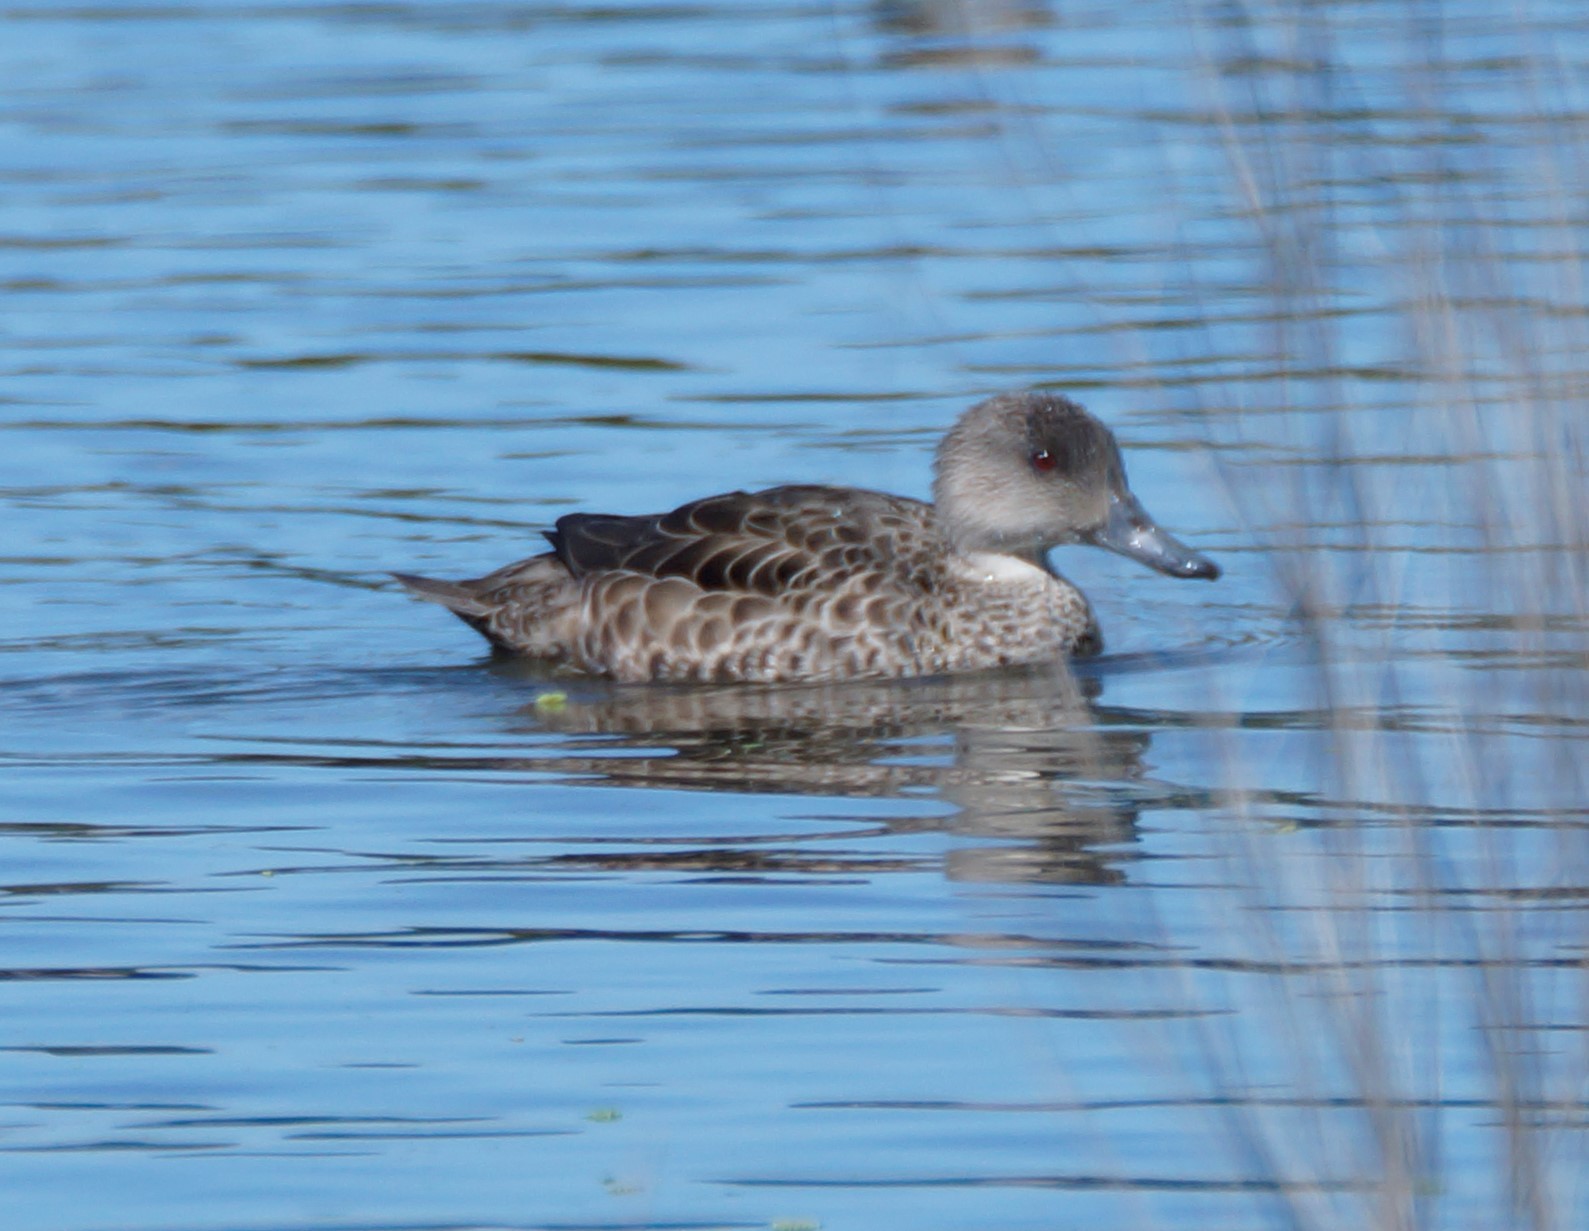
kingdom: Animalia
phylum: Chordata
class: Aves
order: Anseriformes
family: Anatidae
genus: Anas
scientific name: Anas gracilis
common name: Grey teal
